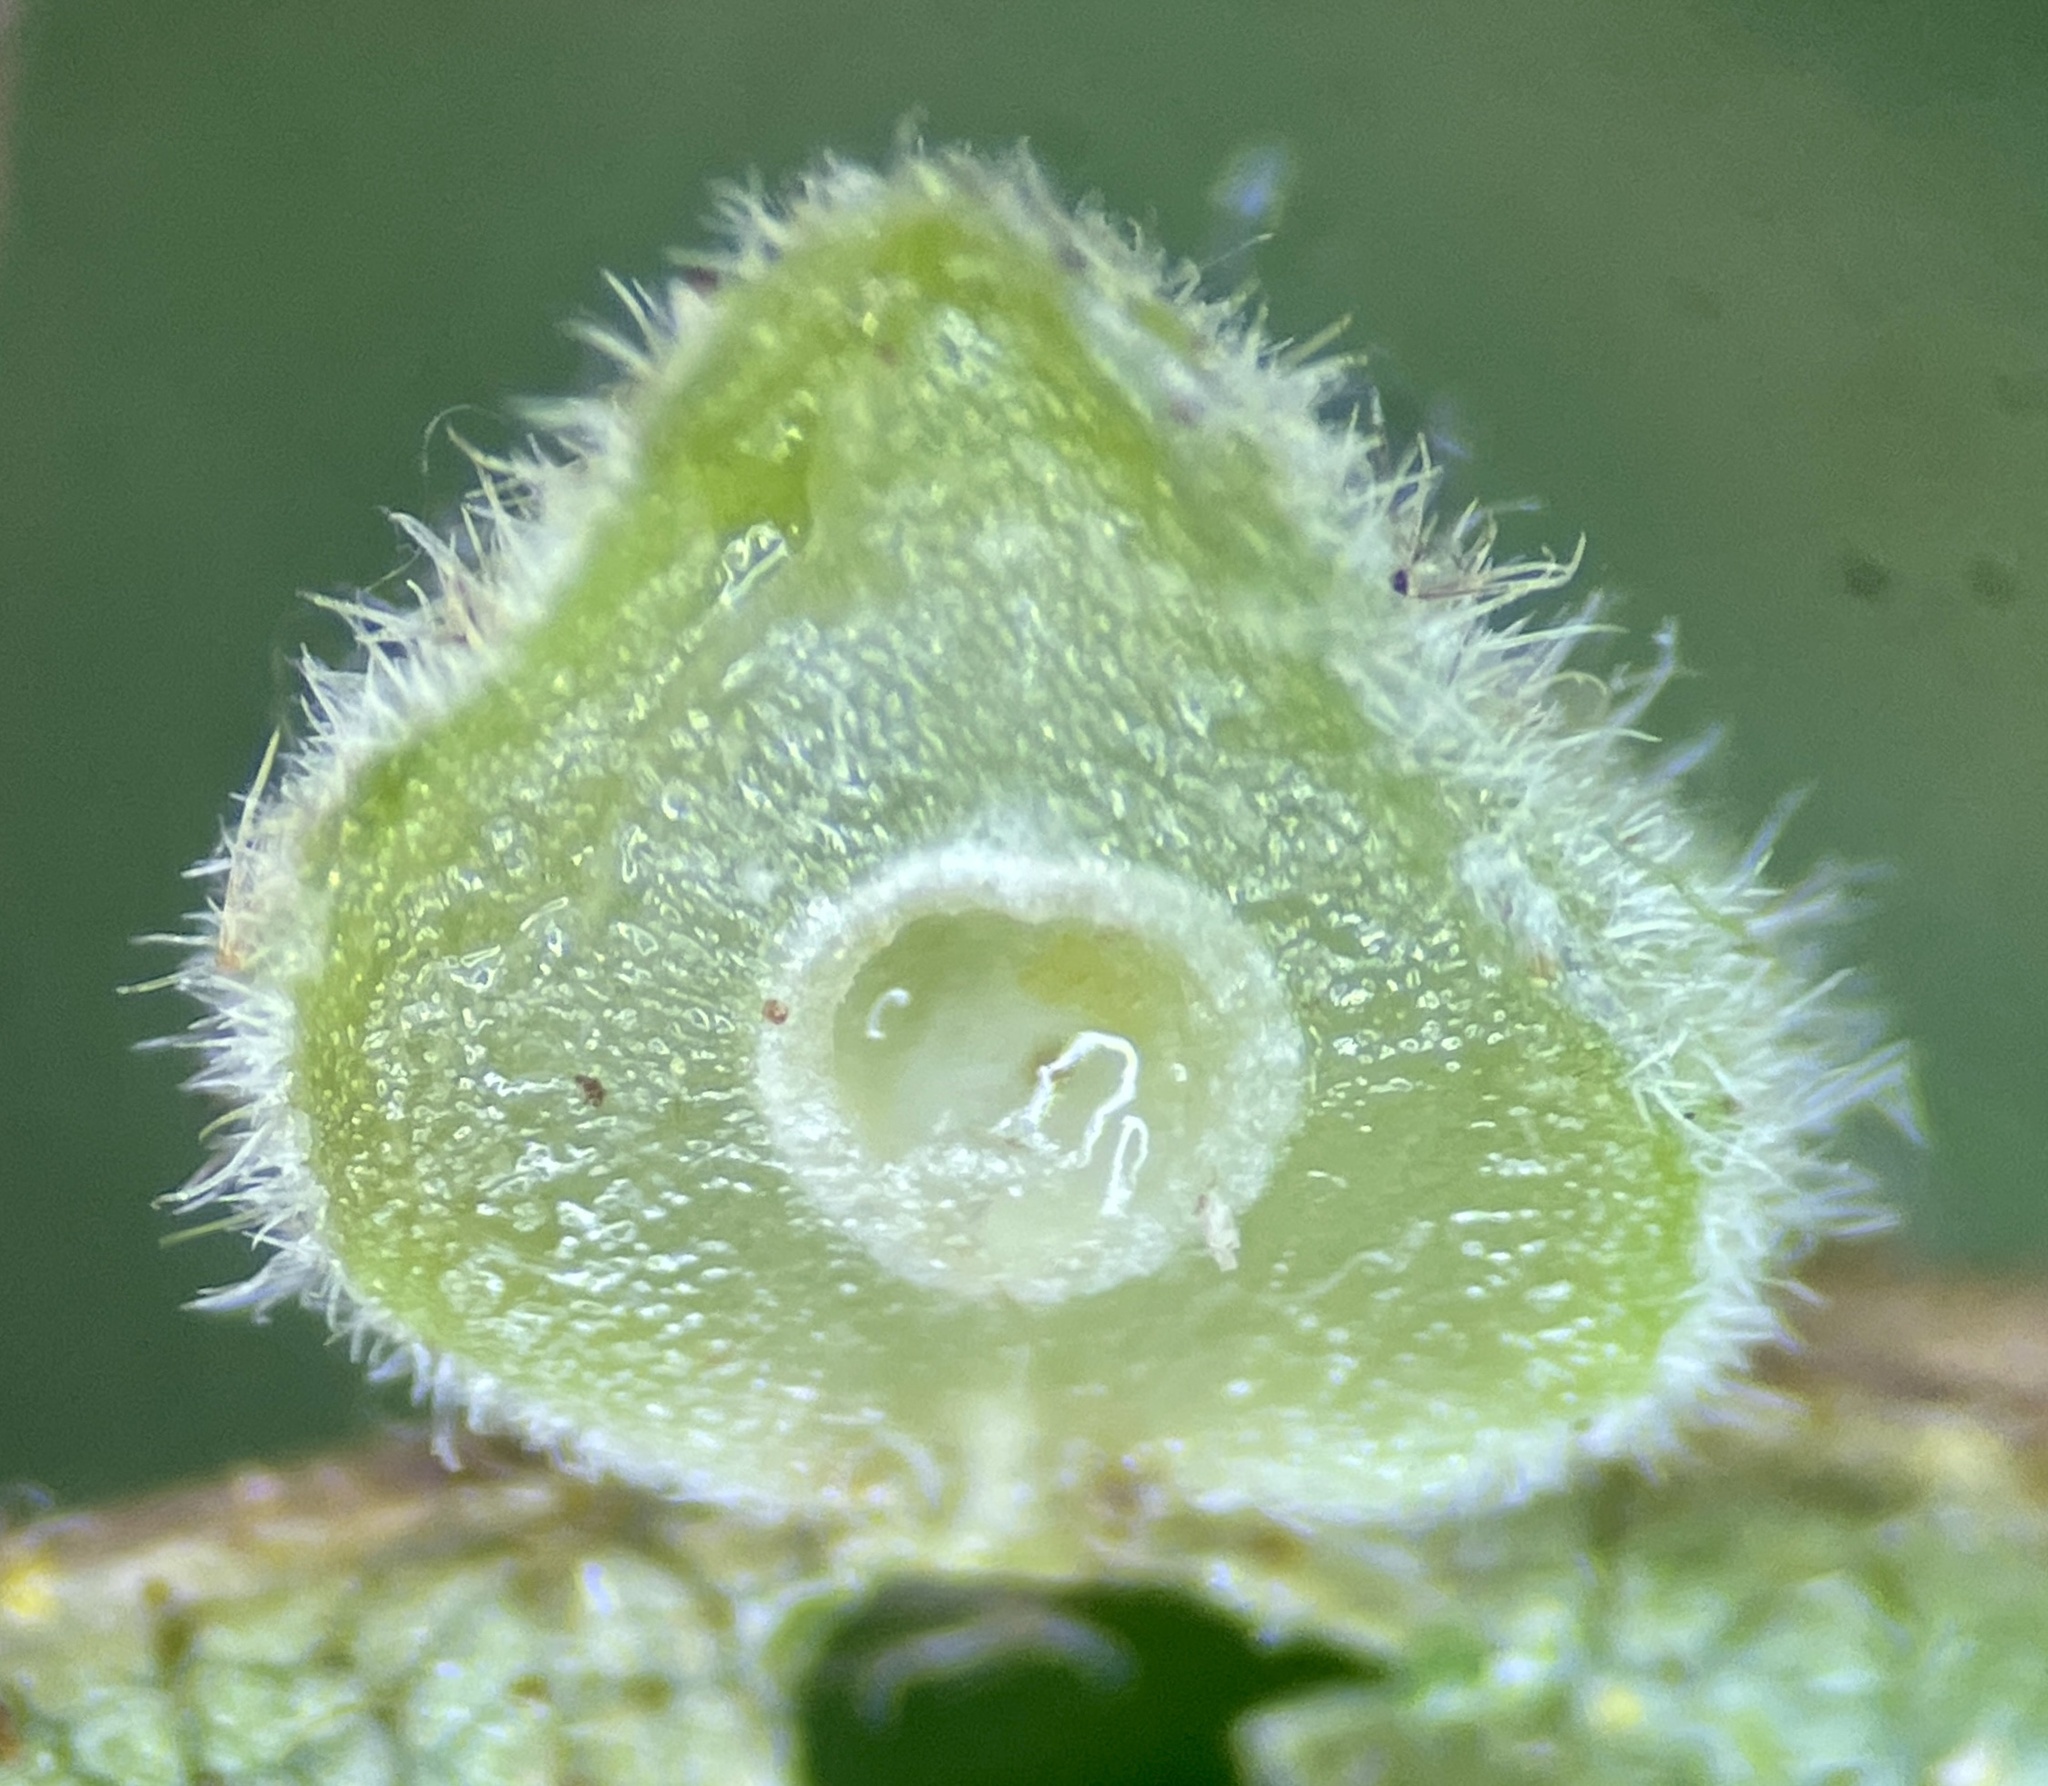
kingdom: Animalia
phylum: Arthropoda
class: Insecta
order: Diptera
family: Cecidomyiidae
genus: Caryomyia
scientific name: Caryomyia conoidea
